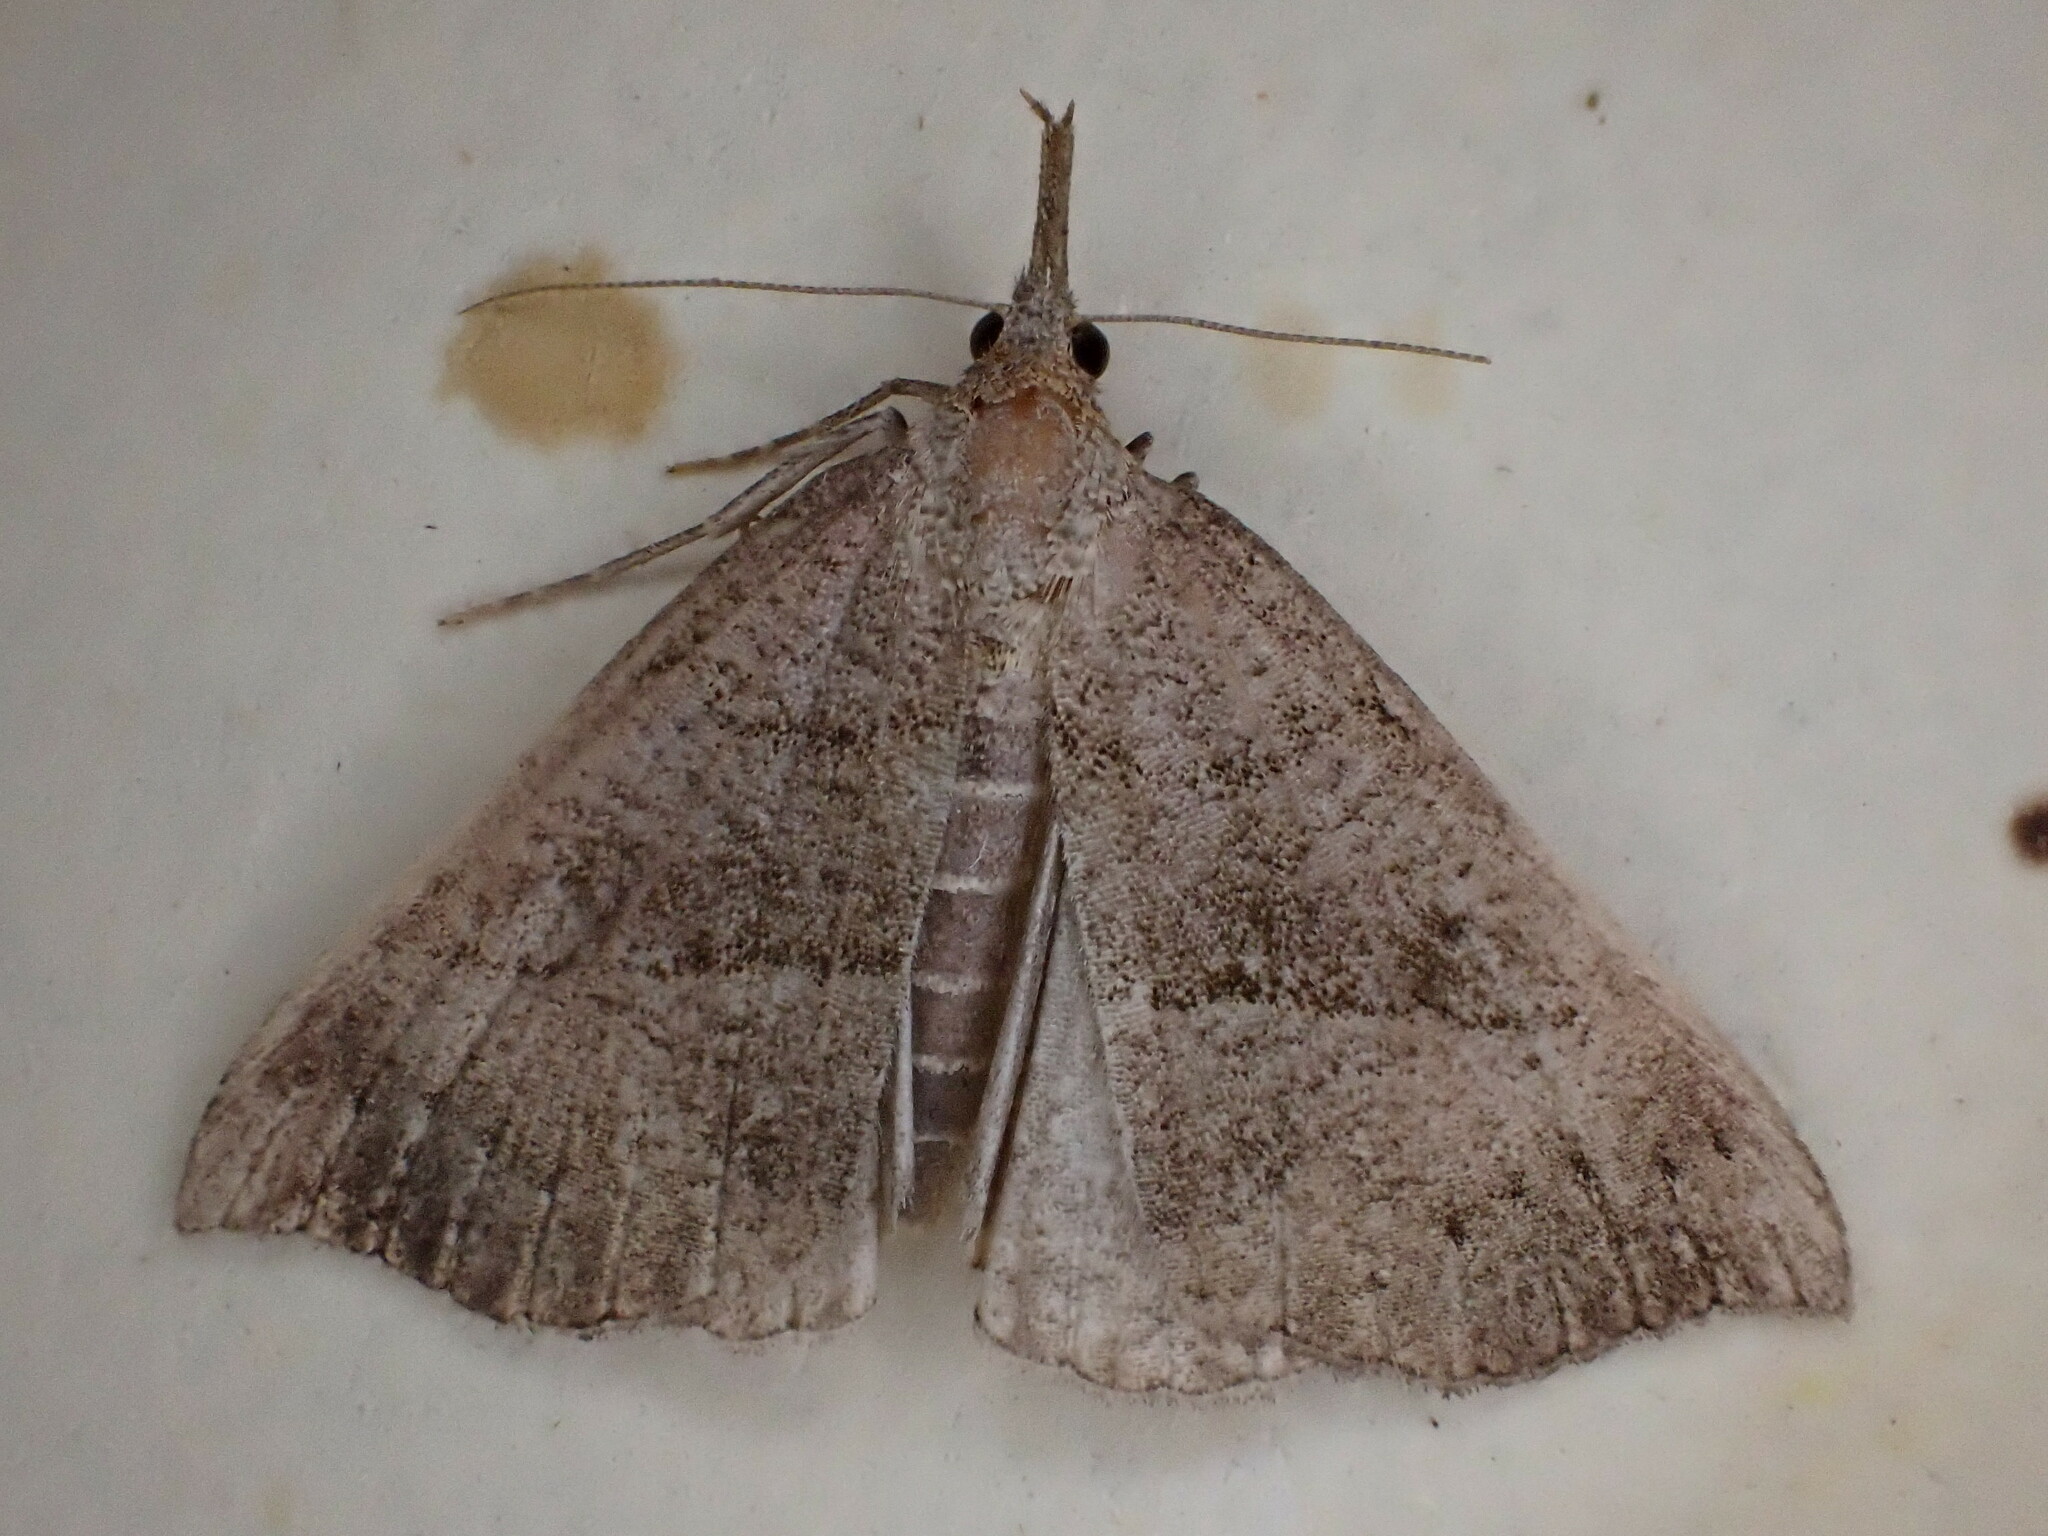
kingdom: Animalia
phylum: Arthropoda
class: Insecta
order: Lepidoptera
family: Erebidae
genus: Hypena
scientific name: Hypena proboscidalis
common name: Snout
